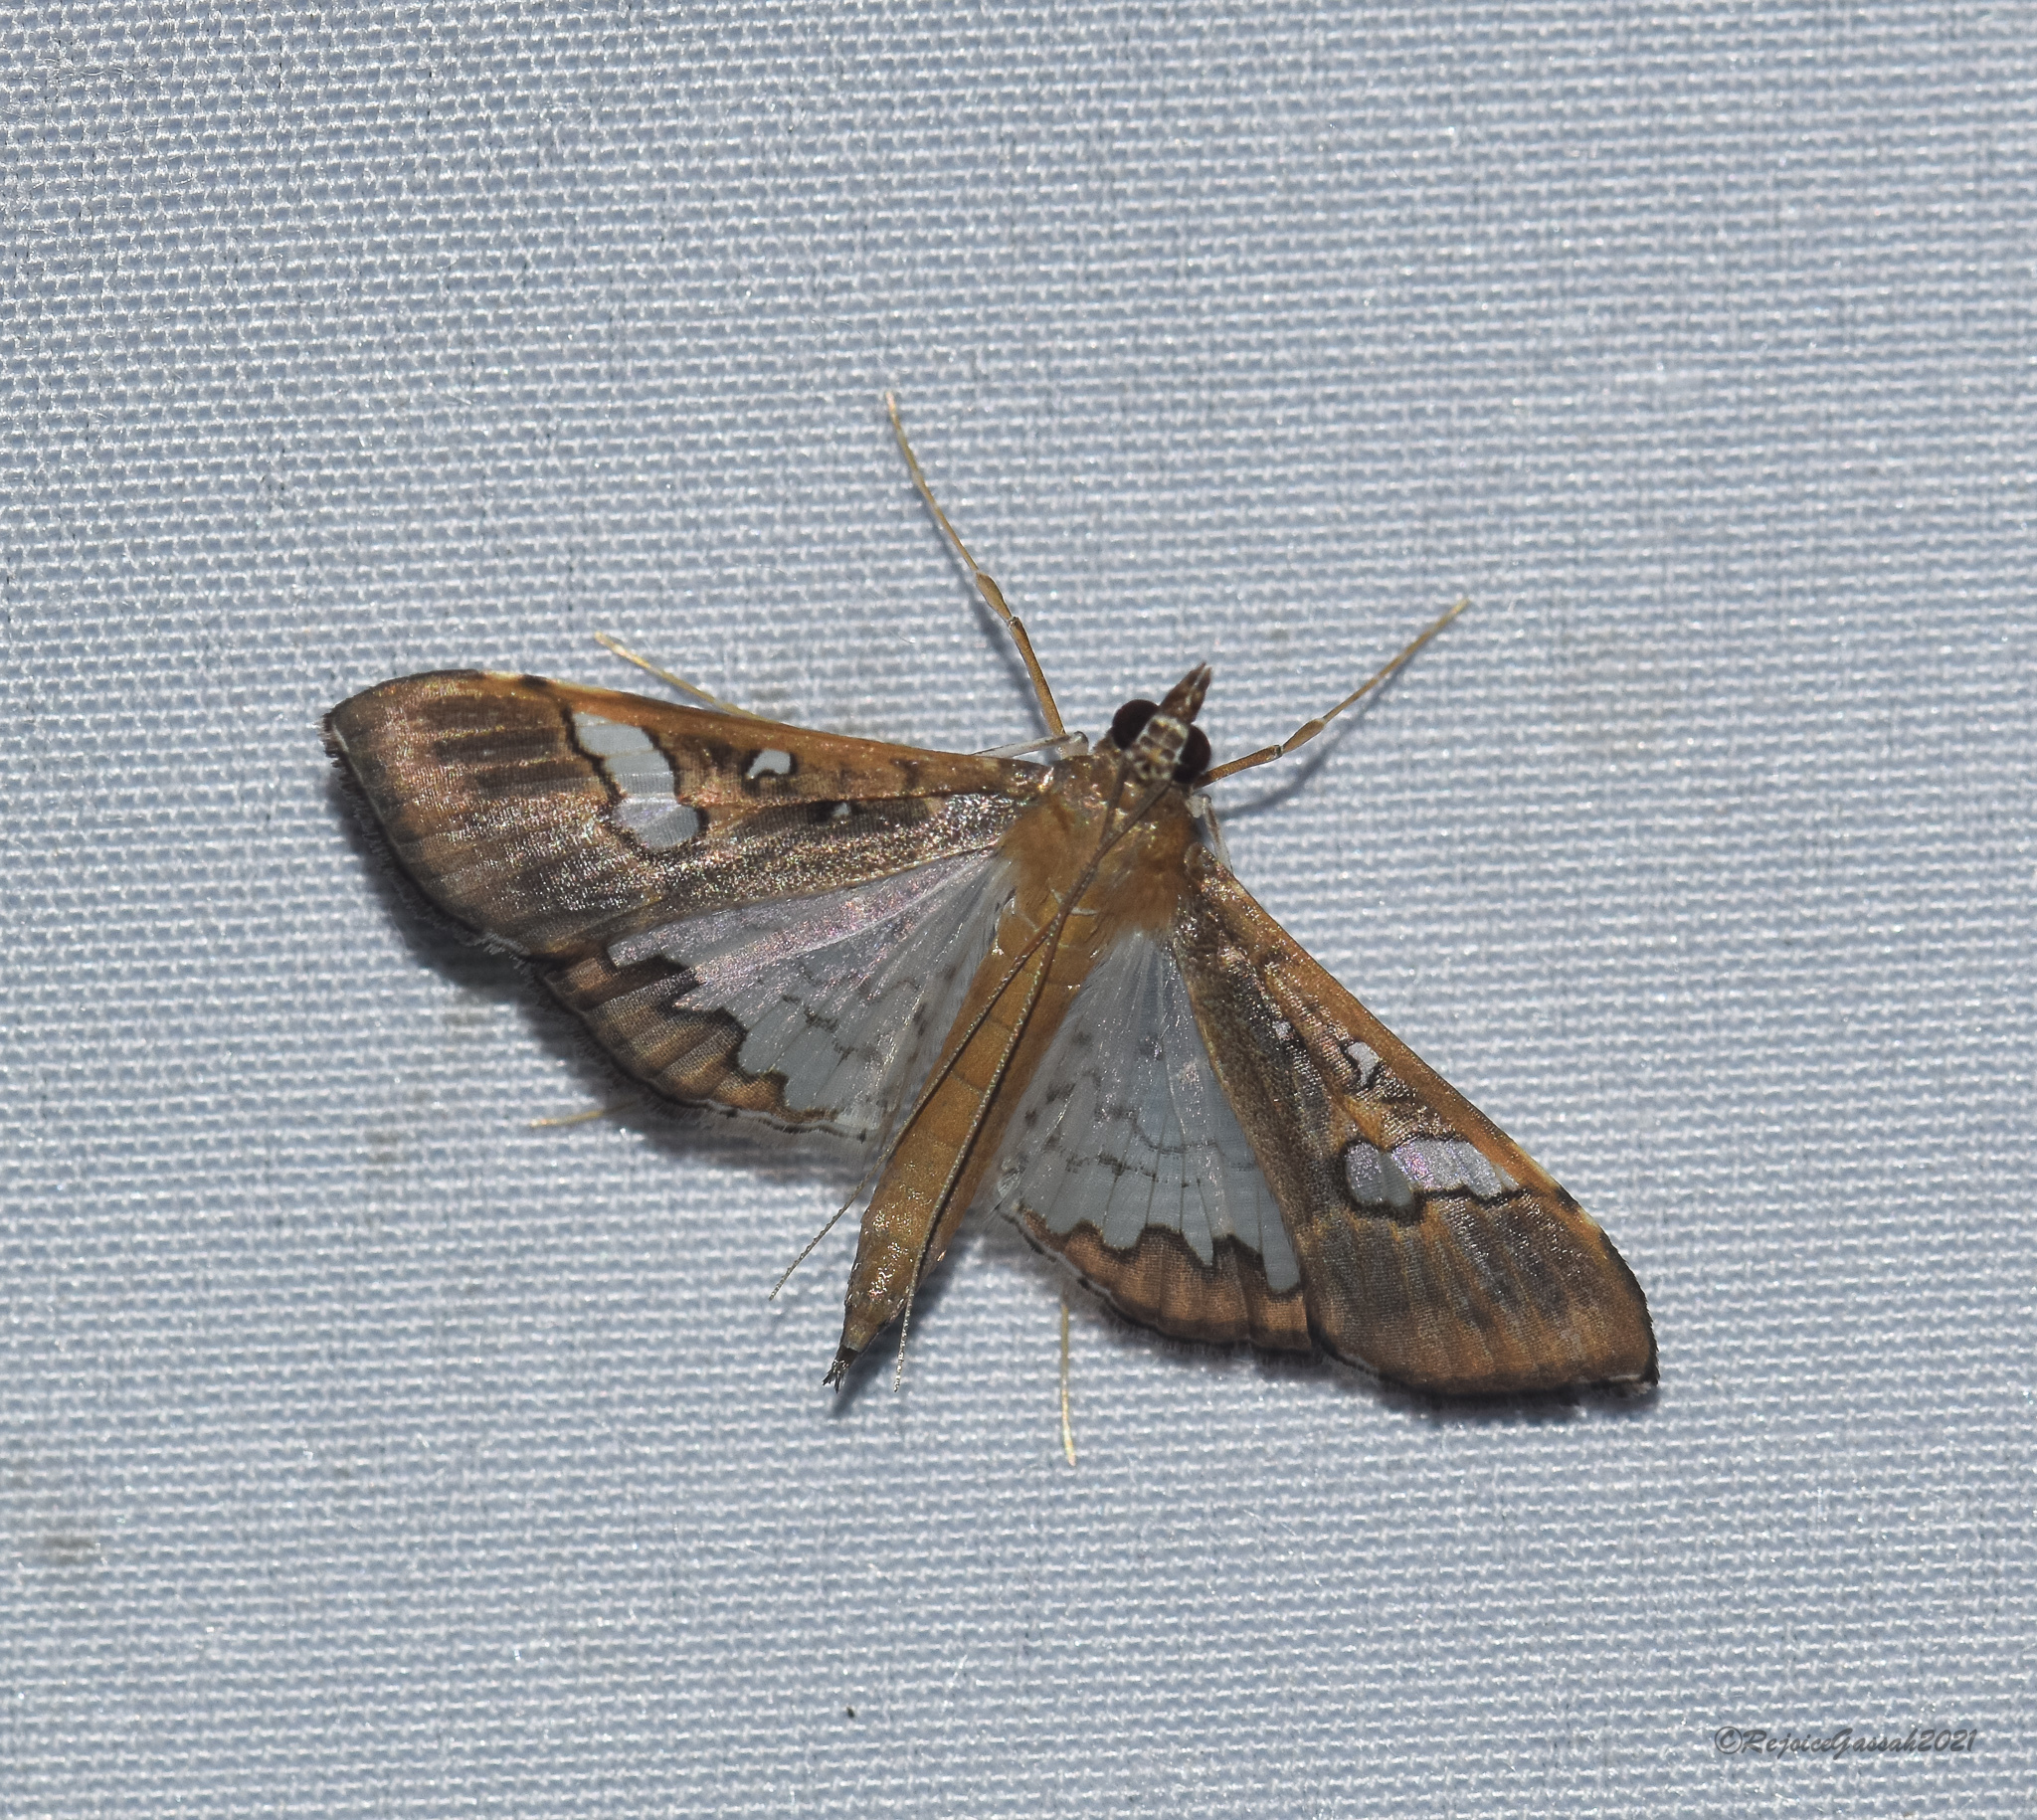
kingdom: Animalia
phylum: Arthropoda
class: Insecta
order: Lepidoptera
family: Crambidae
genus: Maruca
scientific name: Maruca vitrata
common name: Maruca pod borer
